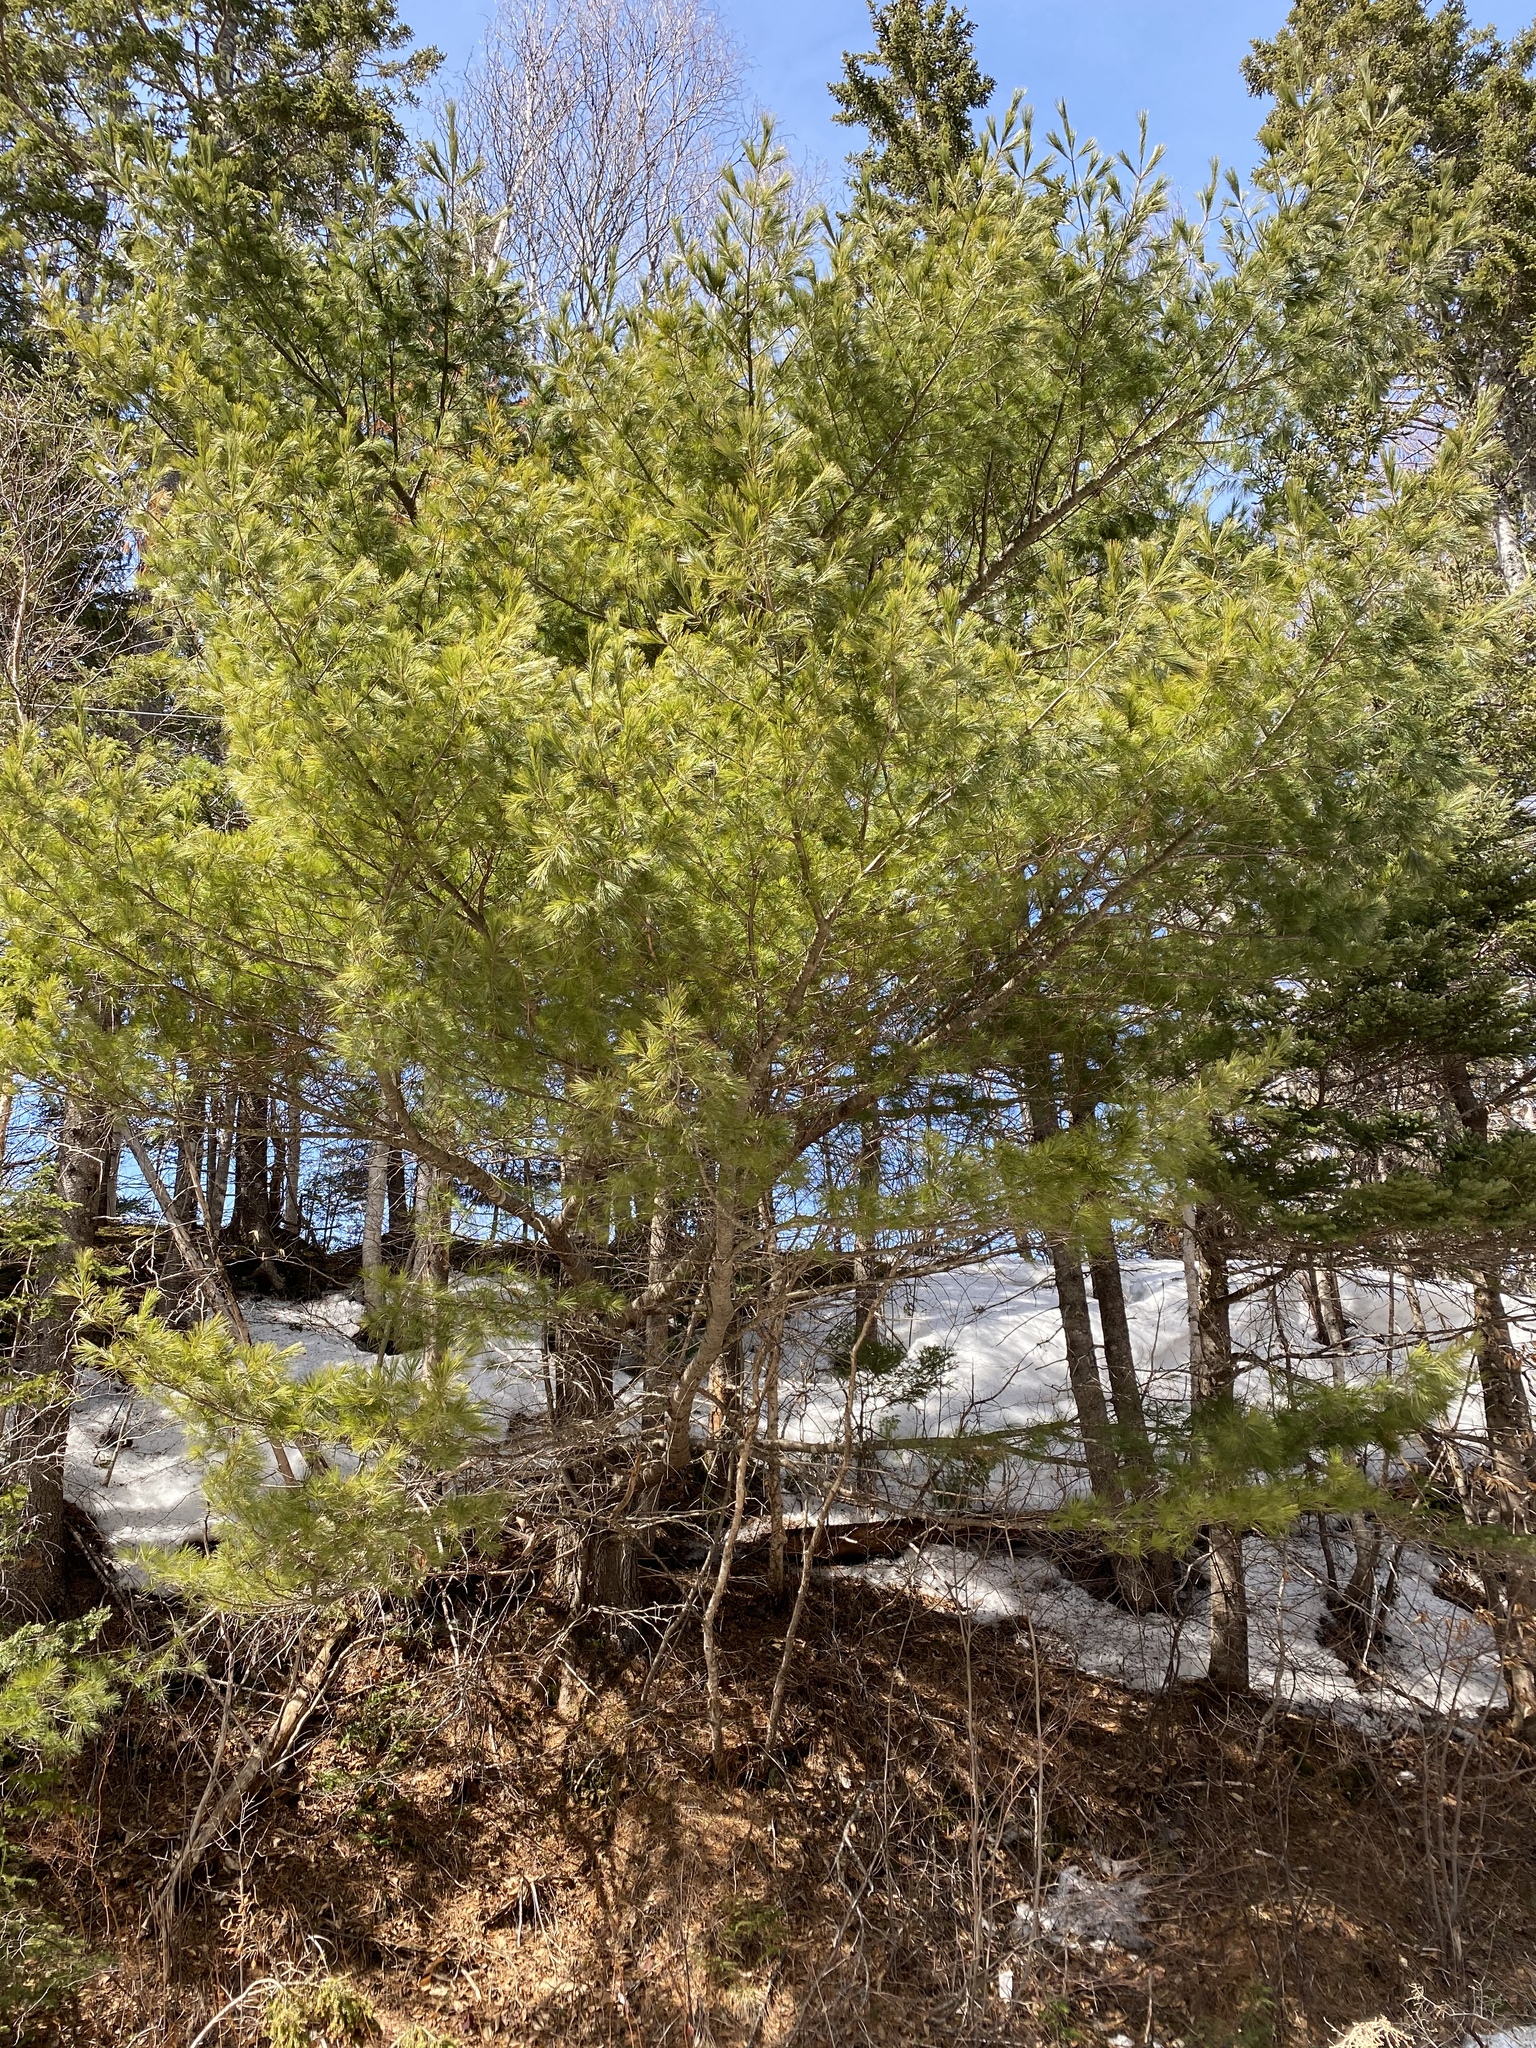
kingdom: Plantae
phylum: Tracheophyta
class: Pinopsida
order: Pinales
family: Pinaceae
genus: Pinus
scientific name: Pinus strobus
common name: Weymouth pine
